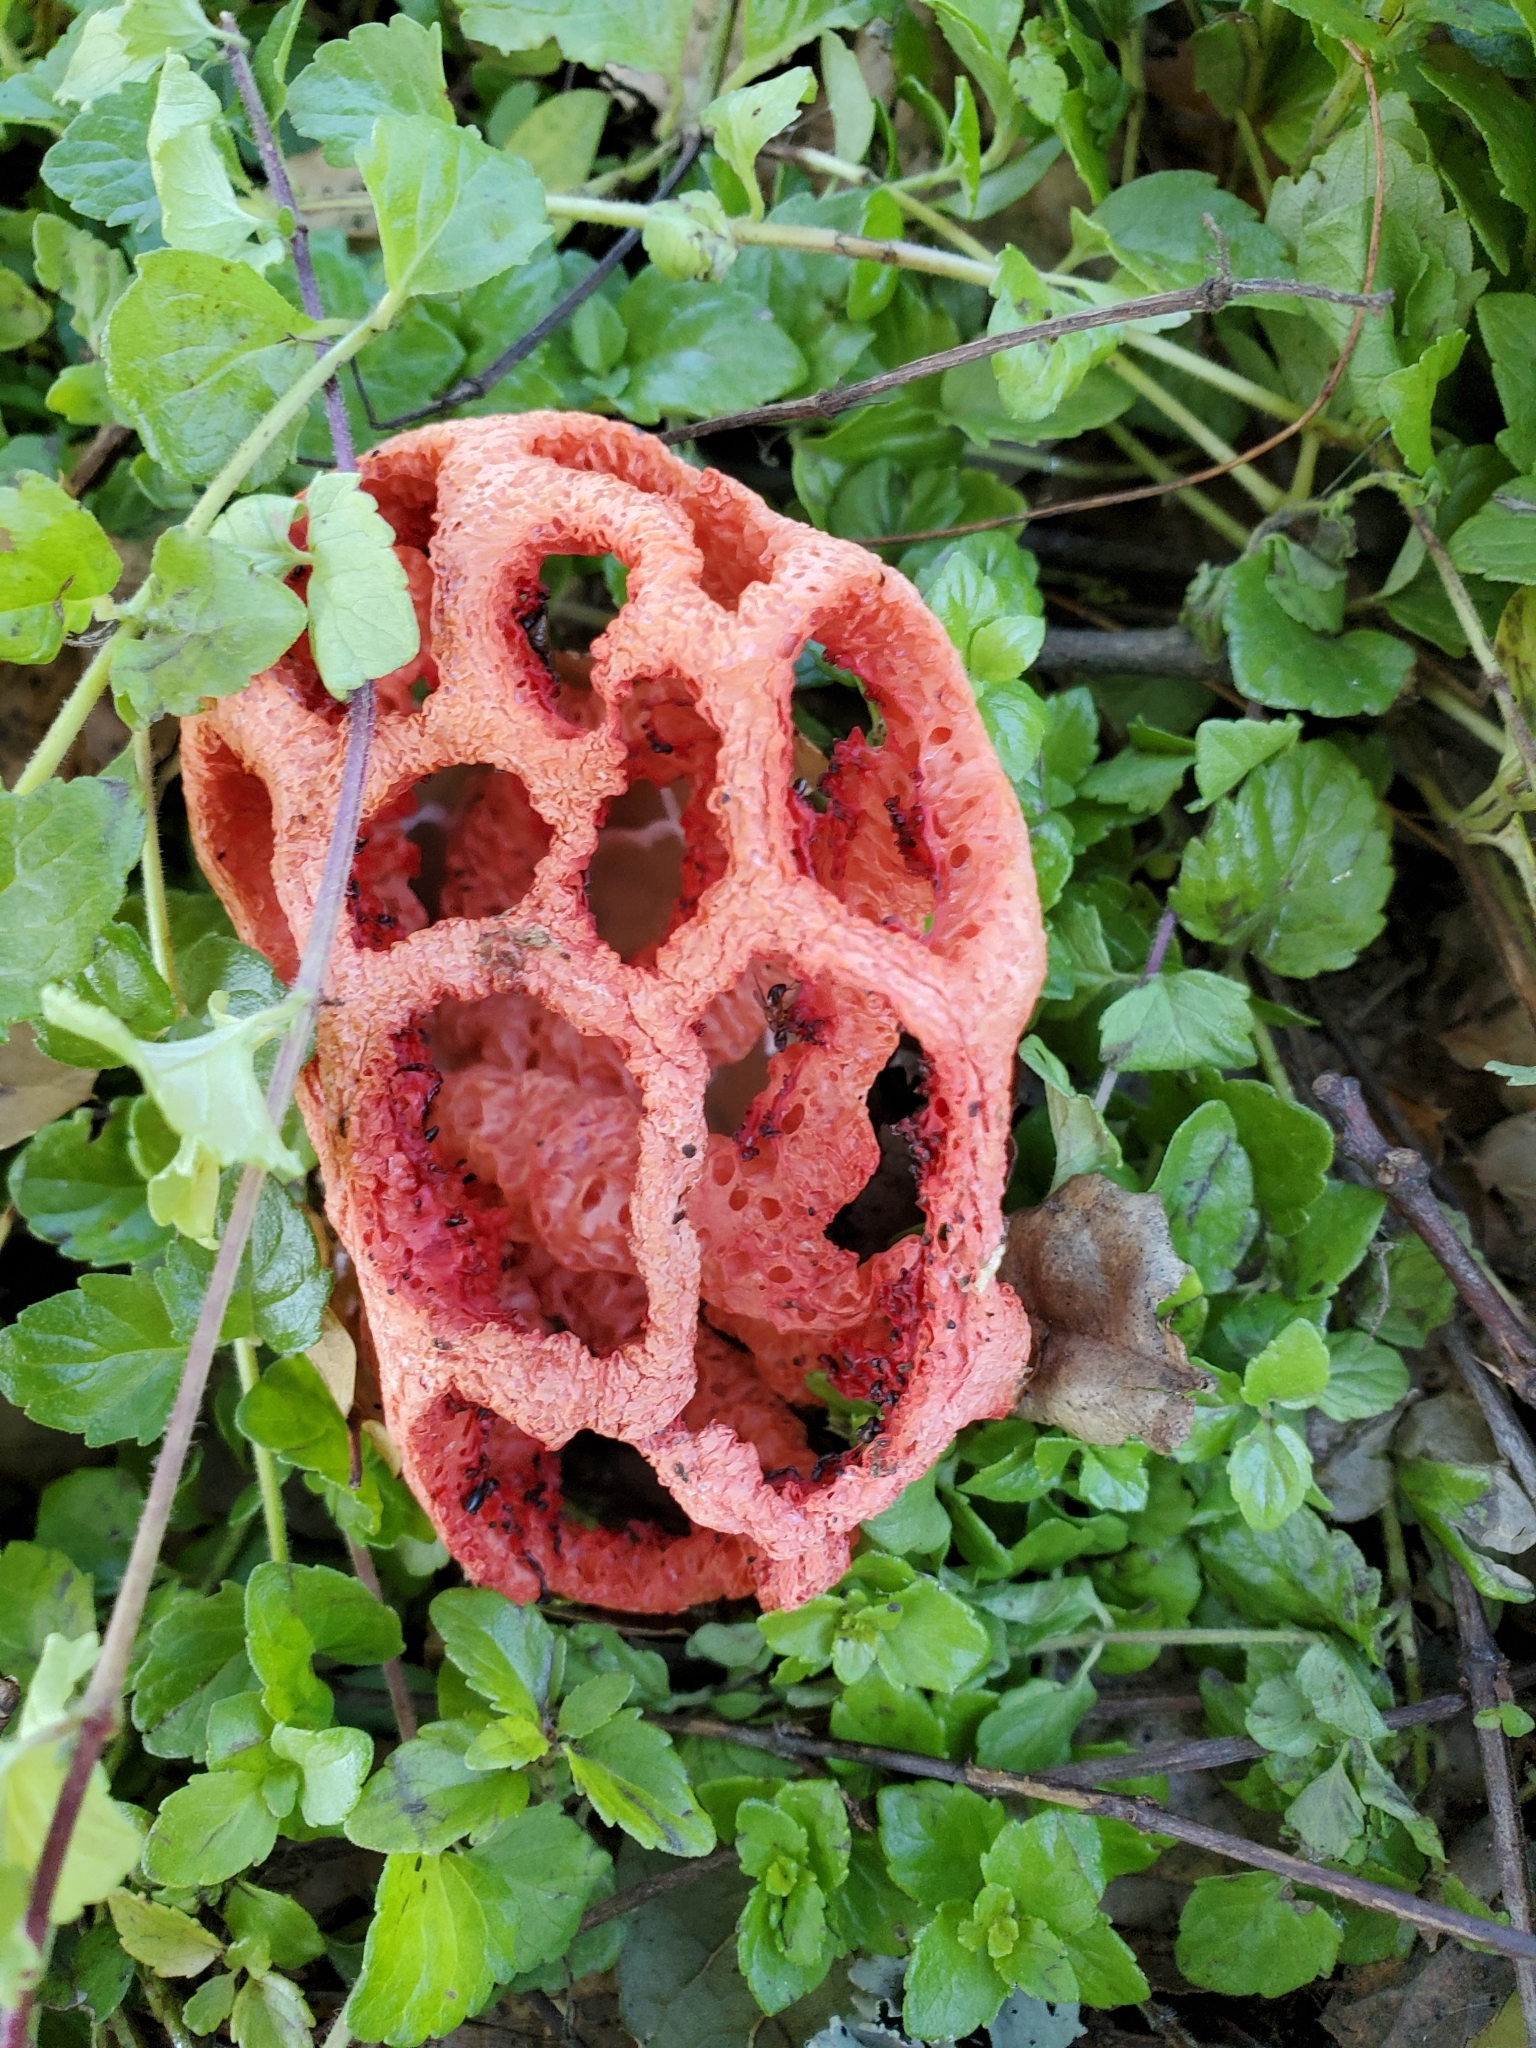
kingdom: Fungi
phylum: Basidiomycota
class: Agaricomycetes
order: Phallales
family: Phallaceae
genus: Clathrus
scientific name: Clathrus ruber
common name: Red cage
